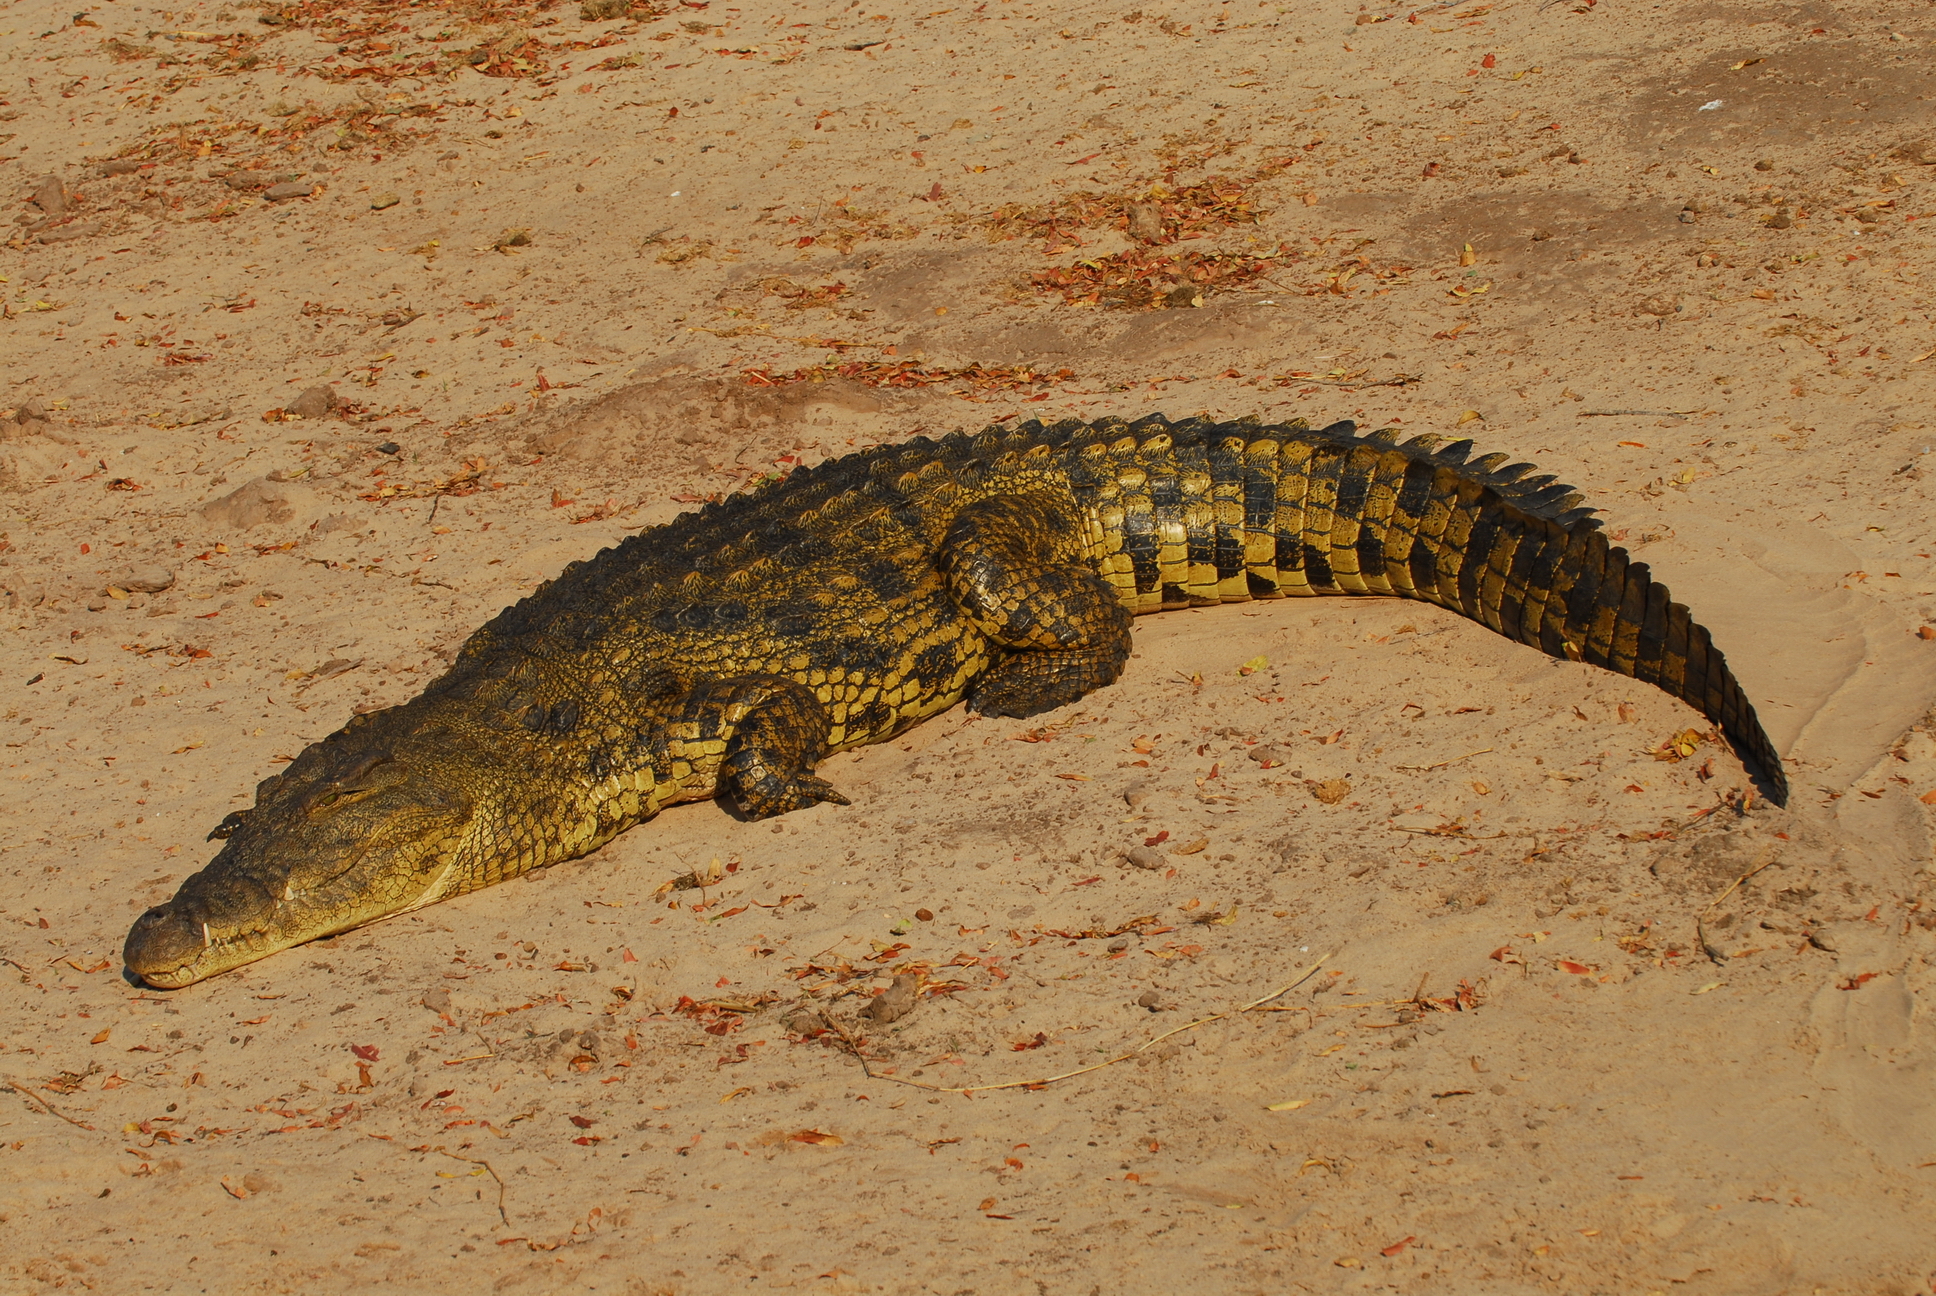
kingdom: Animalia
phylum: Chordata
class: Crocodylia
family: Crocodylidae
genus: Crocodylus
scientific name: Crocodylus niloticus
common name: Nile crocodile
